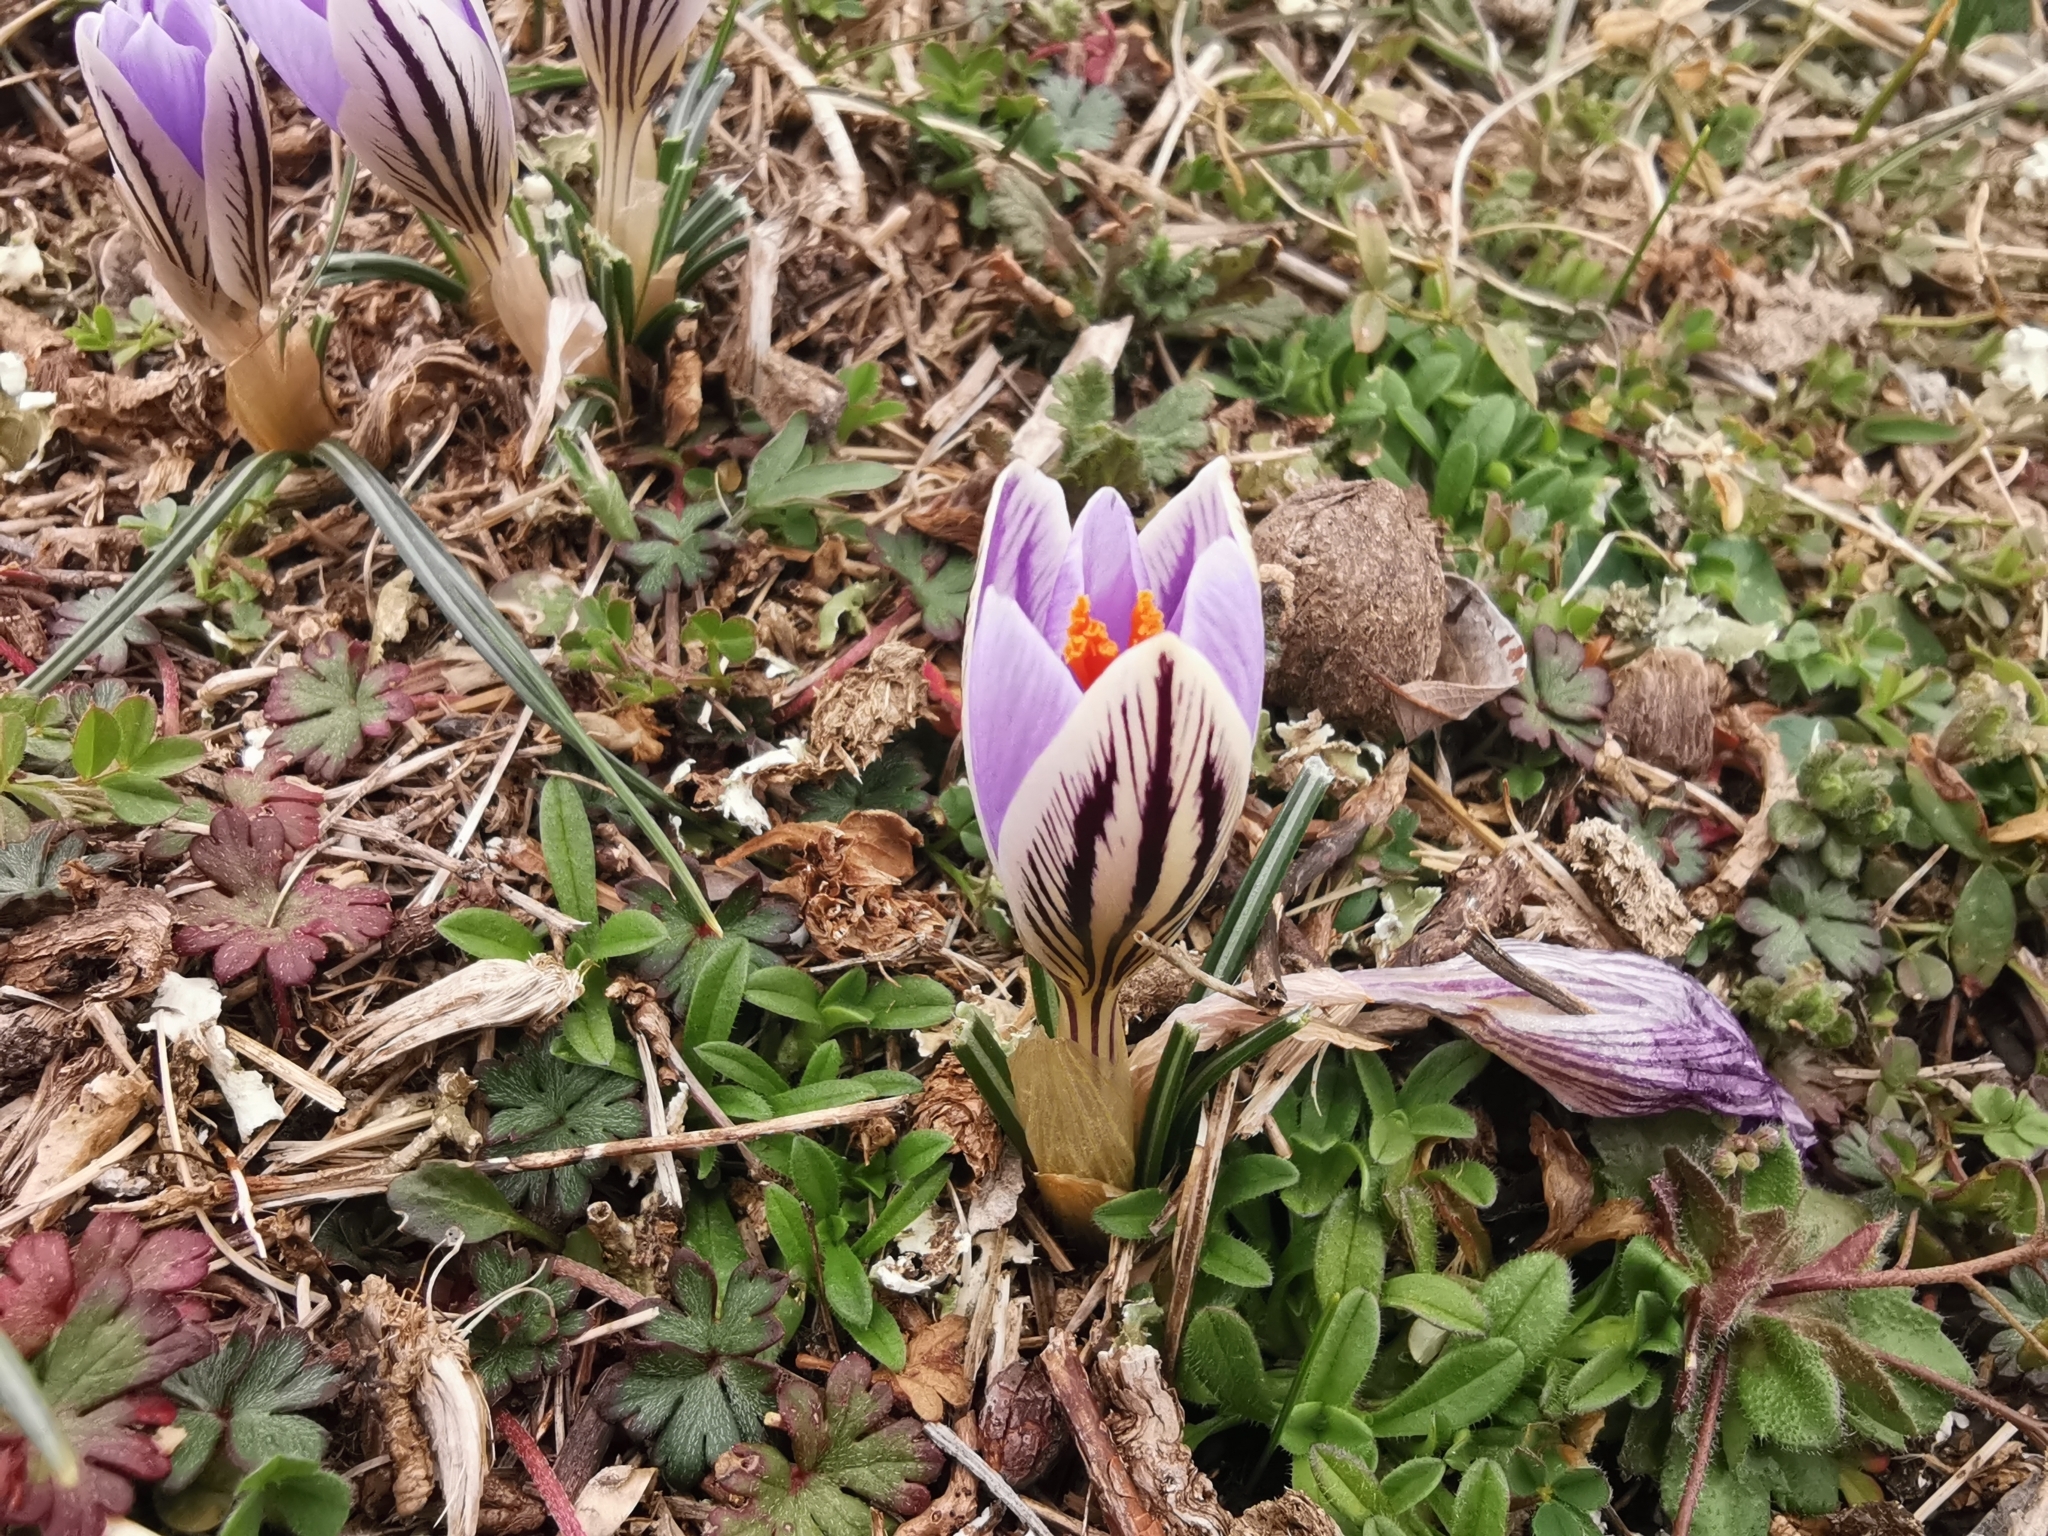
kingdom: Plantae
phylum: Tracheophyta
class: Liliopsida
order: Asparagales
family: Iridaceae
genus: Crocus
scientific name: Crocus variegatus
